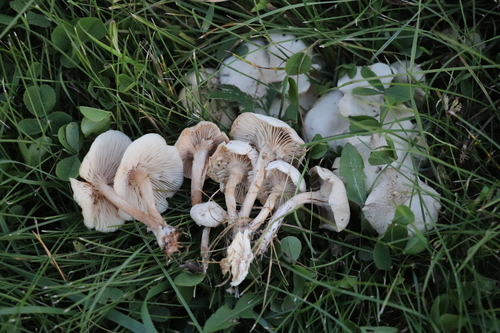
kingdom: Fungi
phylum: Basidiomycota
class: Agaricomycetes
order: Agaricales
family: Marasmiaceae
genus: Marasmius
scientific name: Marasmius oreades
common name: Fairy ring champignon
